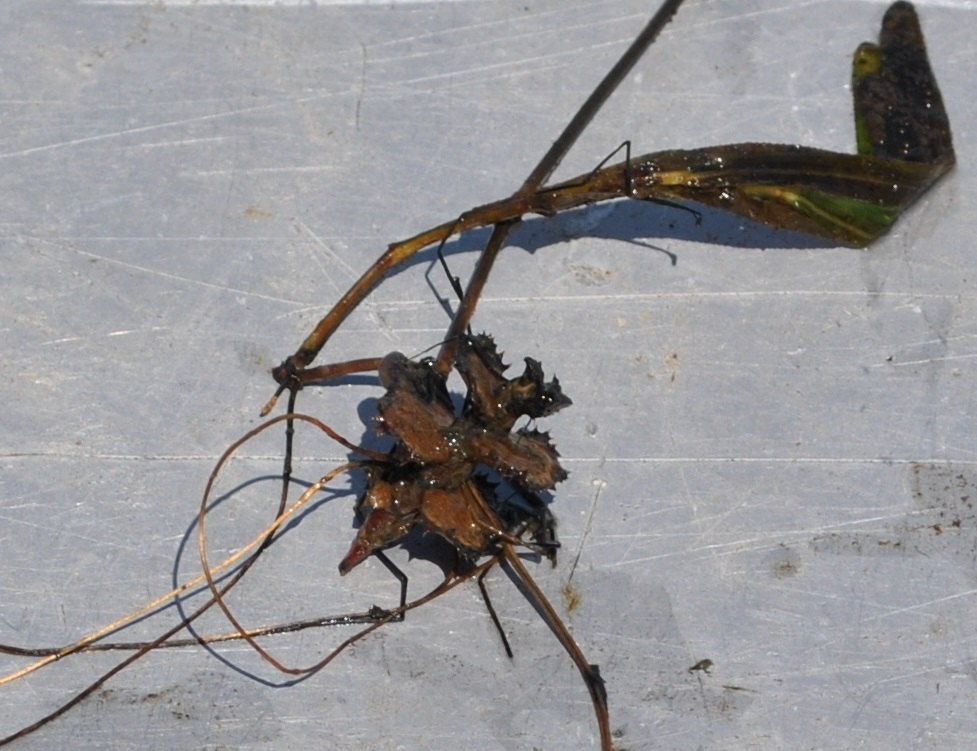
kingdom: Plantae
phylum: Tracheophyta
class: Liliopsida
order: Alismatales
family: Potamogetonaceae
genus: Potamogeton
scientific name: Potamogeton crispus
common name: Curled pondweed
